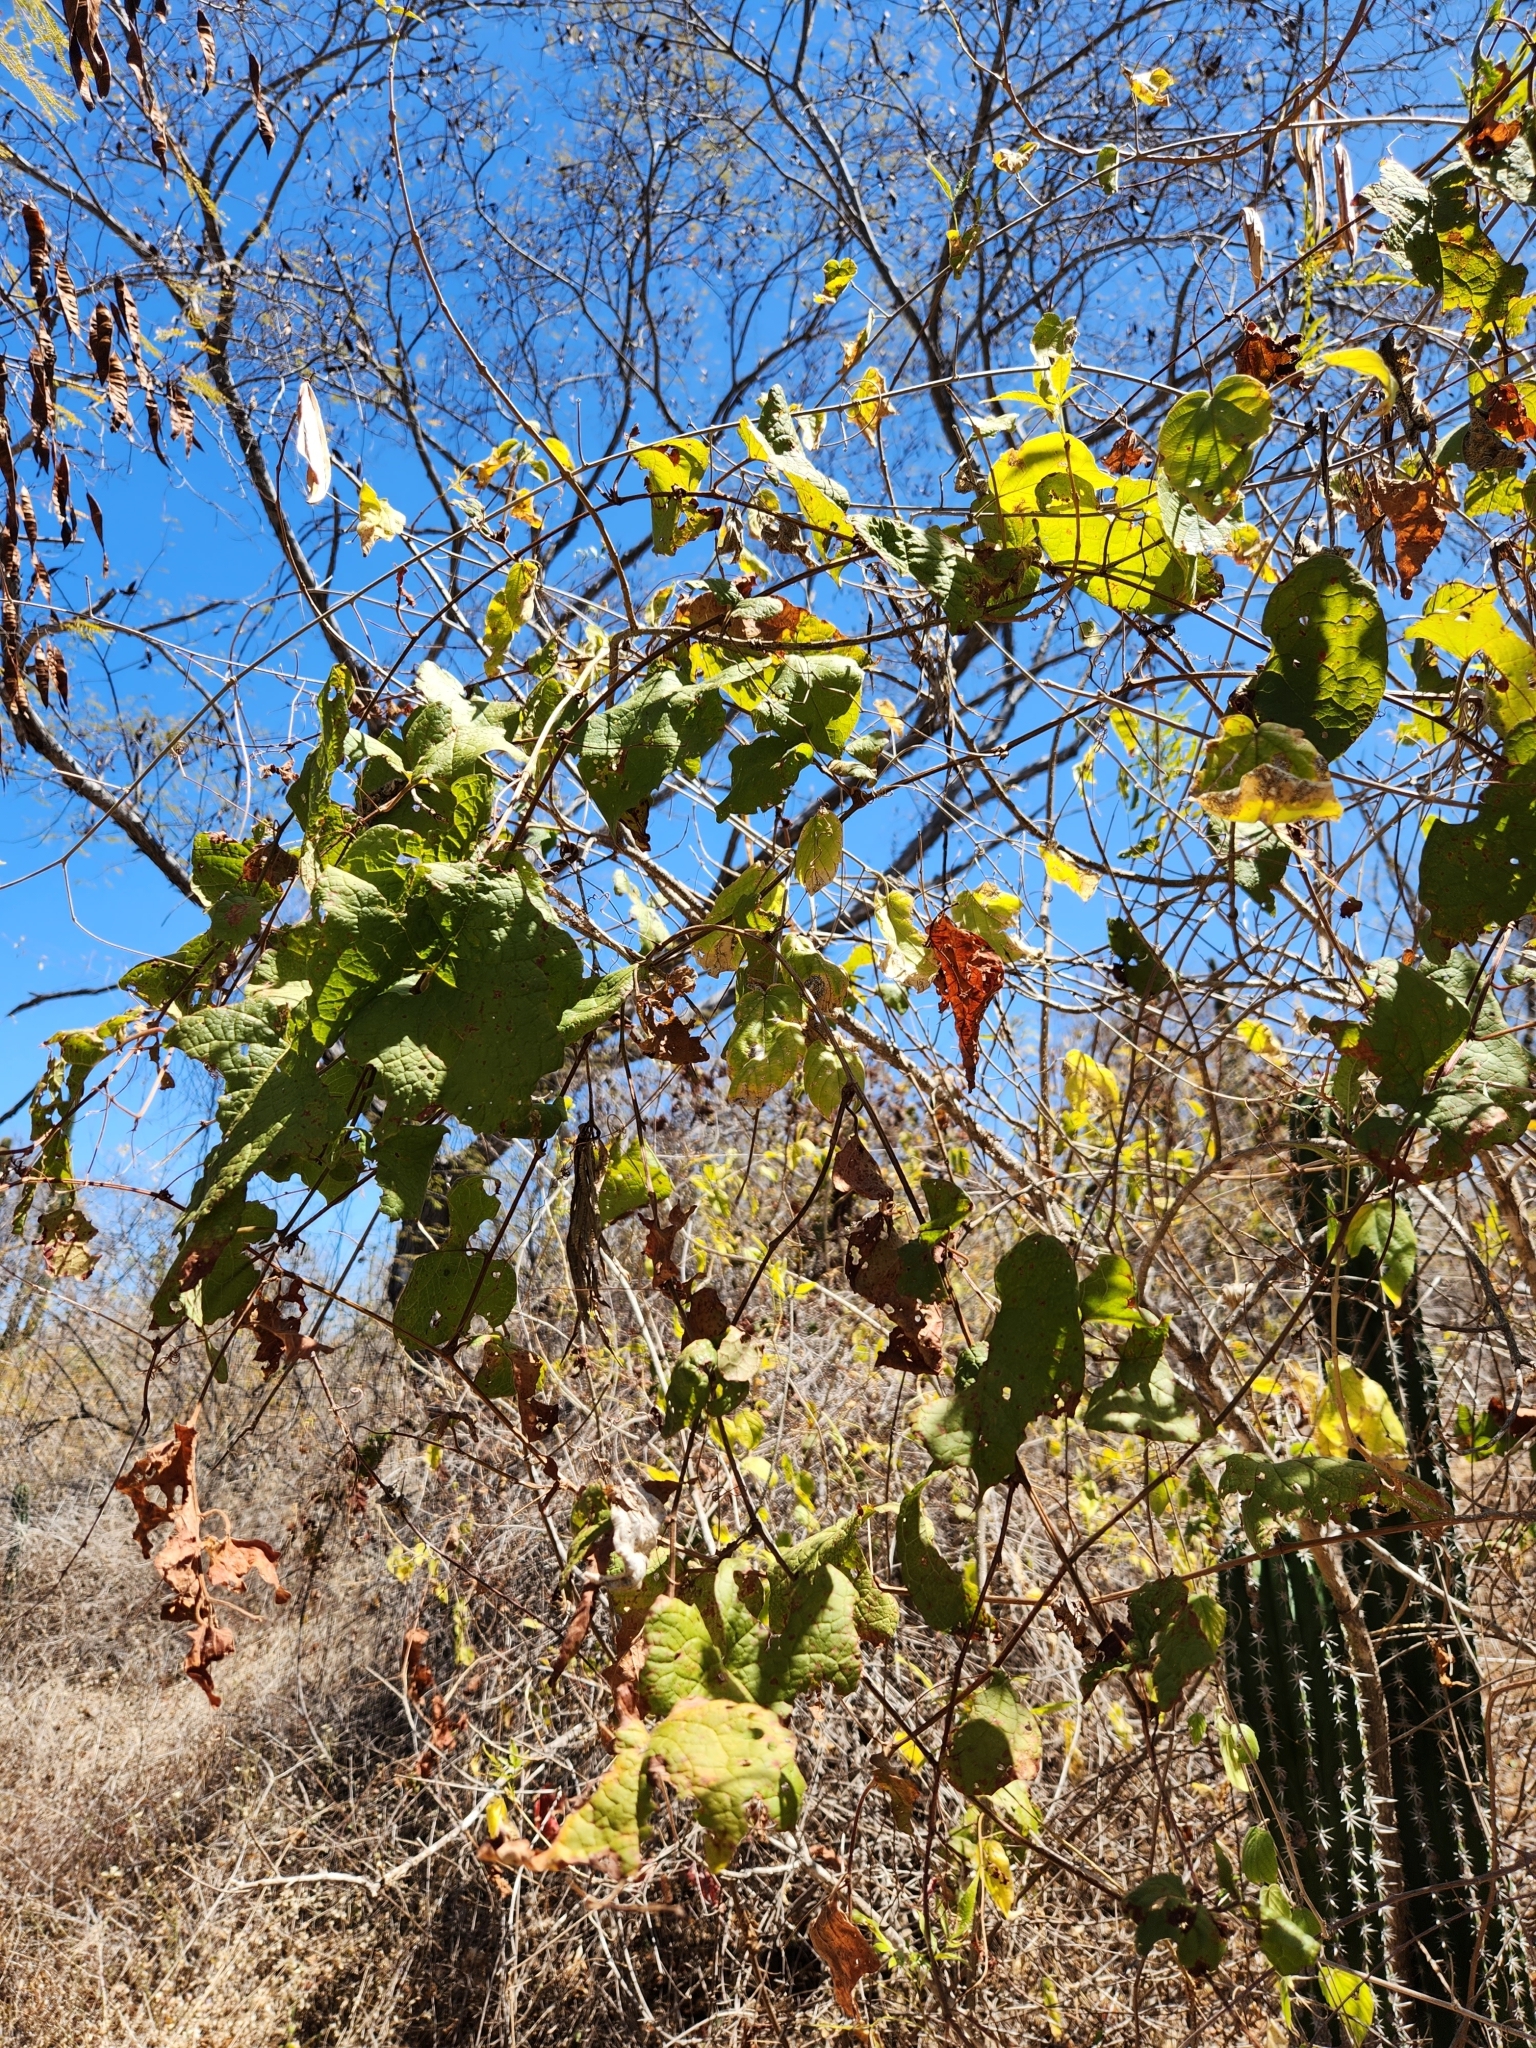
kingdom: Plantae
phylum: Tracheophyta
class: Magnoliopsida
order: Caryophyllales
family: Polygonaceae
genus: Antigonon
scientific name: Antigonon leptopus
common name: Coral vine
